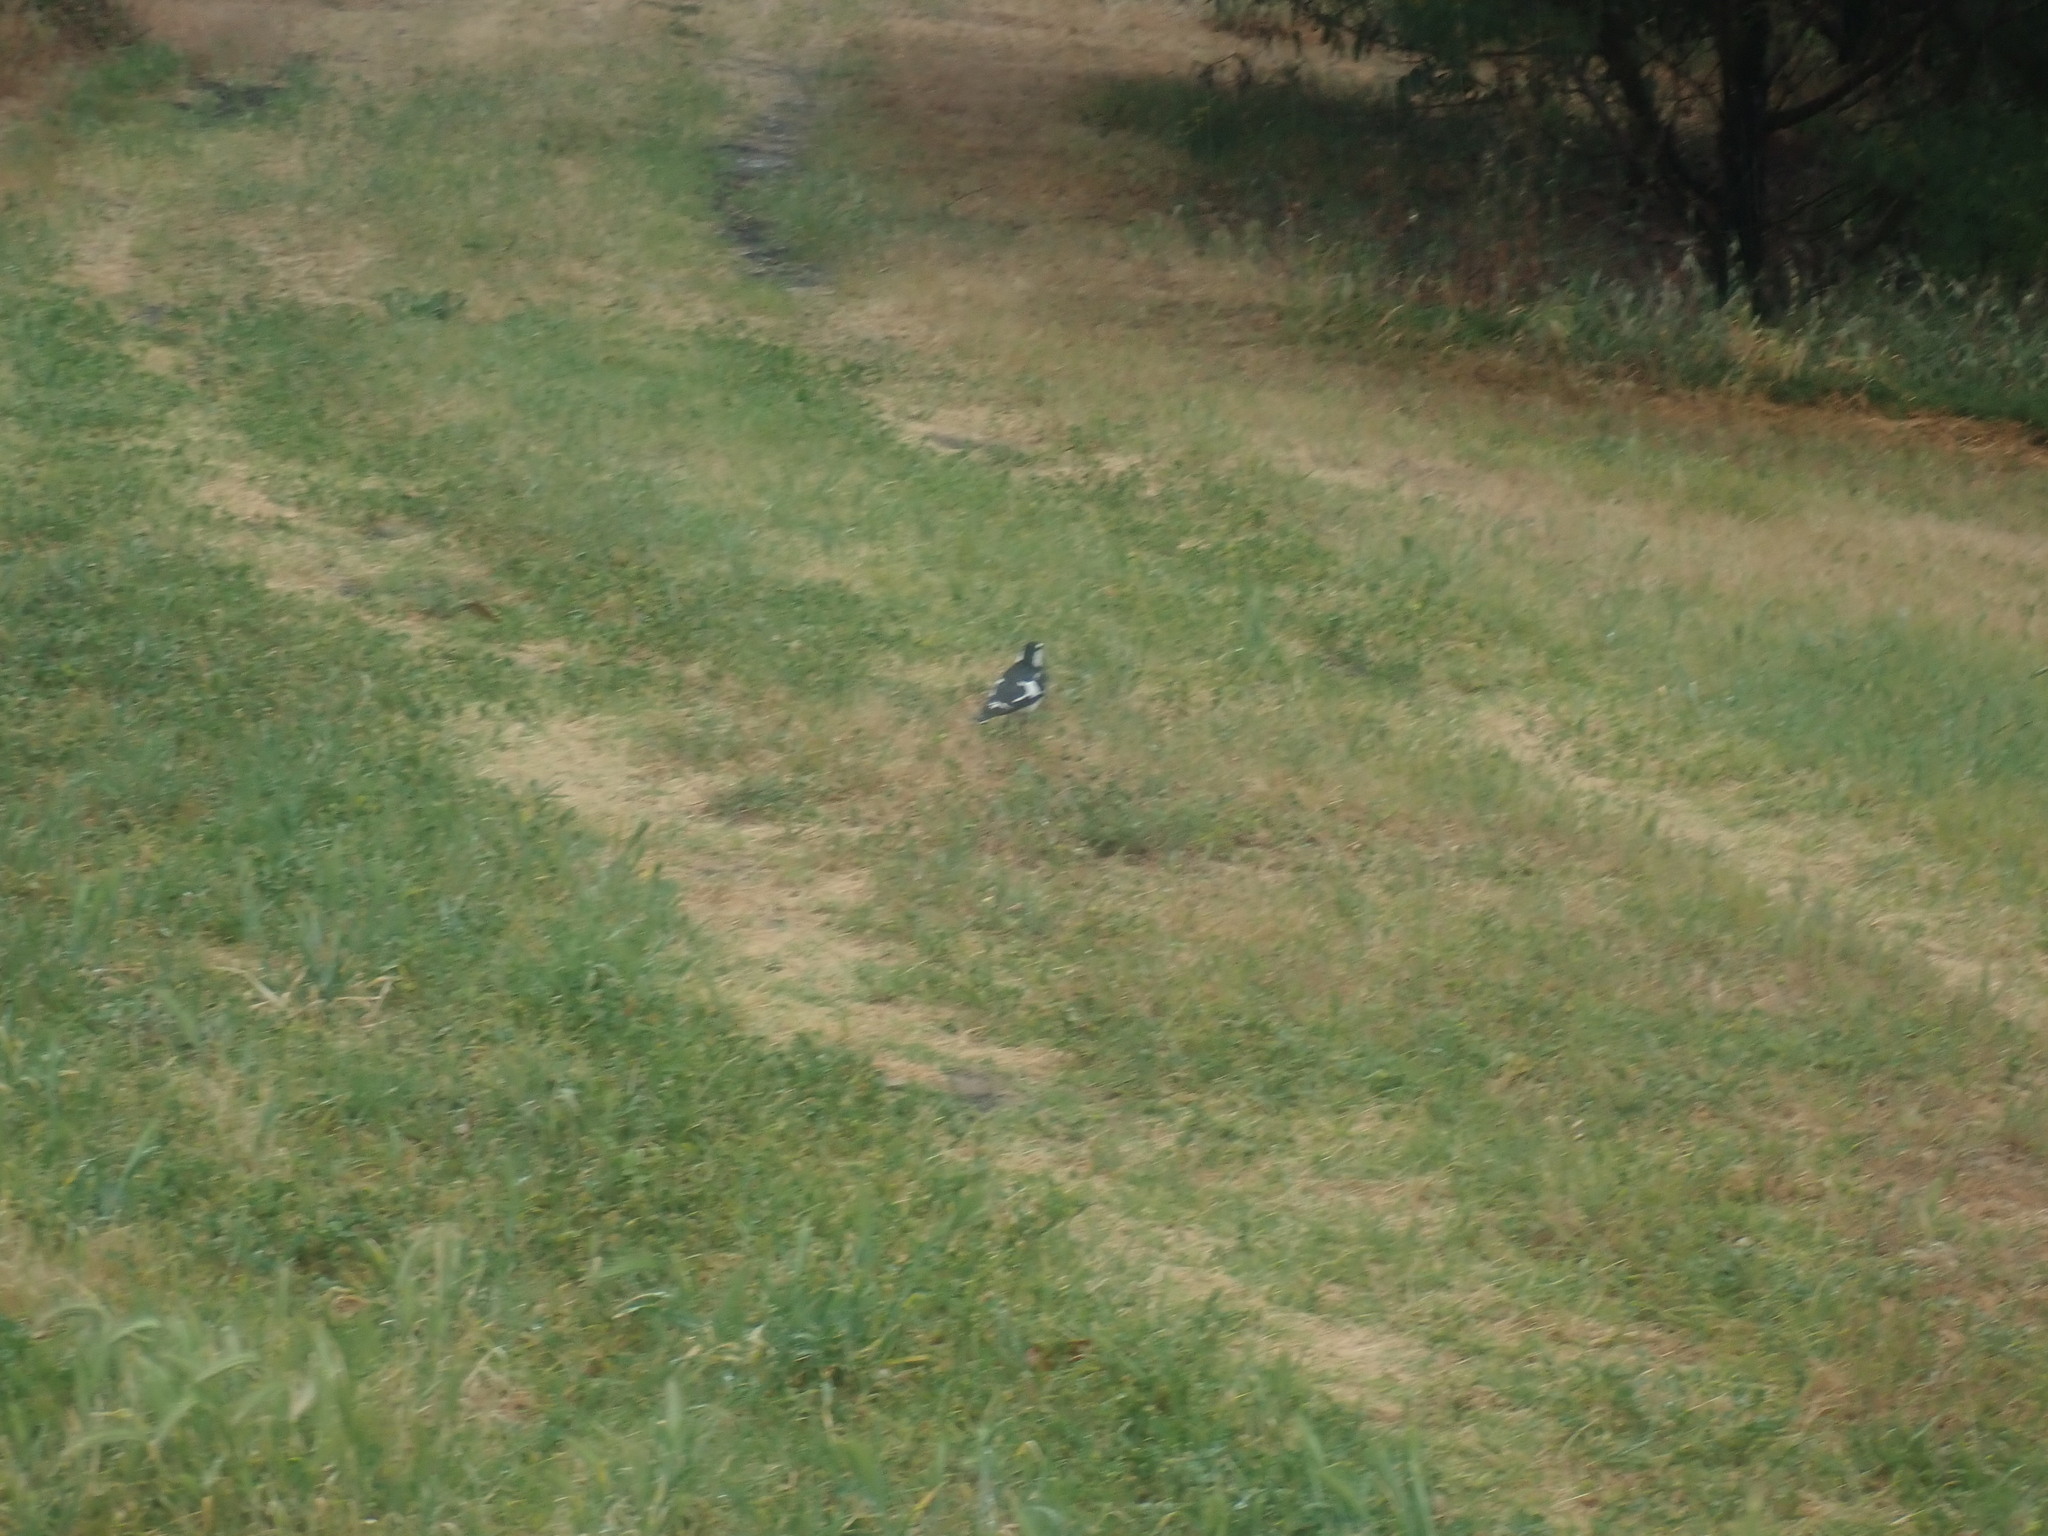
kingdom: Animalia
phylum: Chordata
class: Aves
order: Passeriformes
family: Monarchidae
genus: Grallina
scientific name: Grallina cyanoleuca
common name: Magpie-lark
